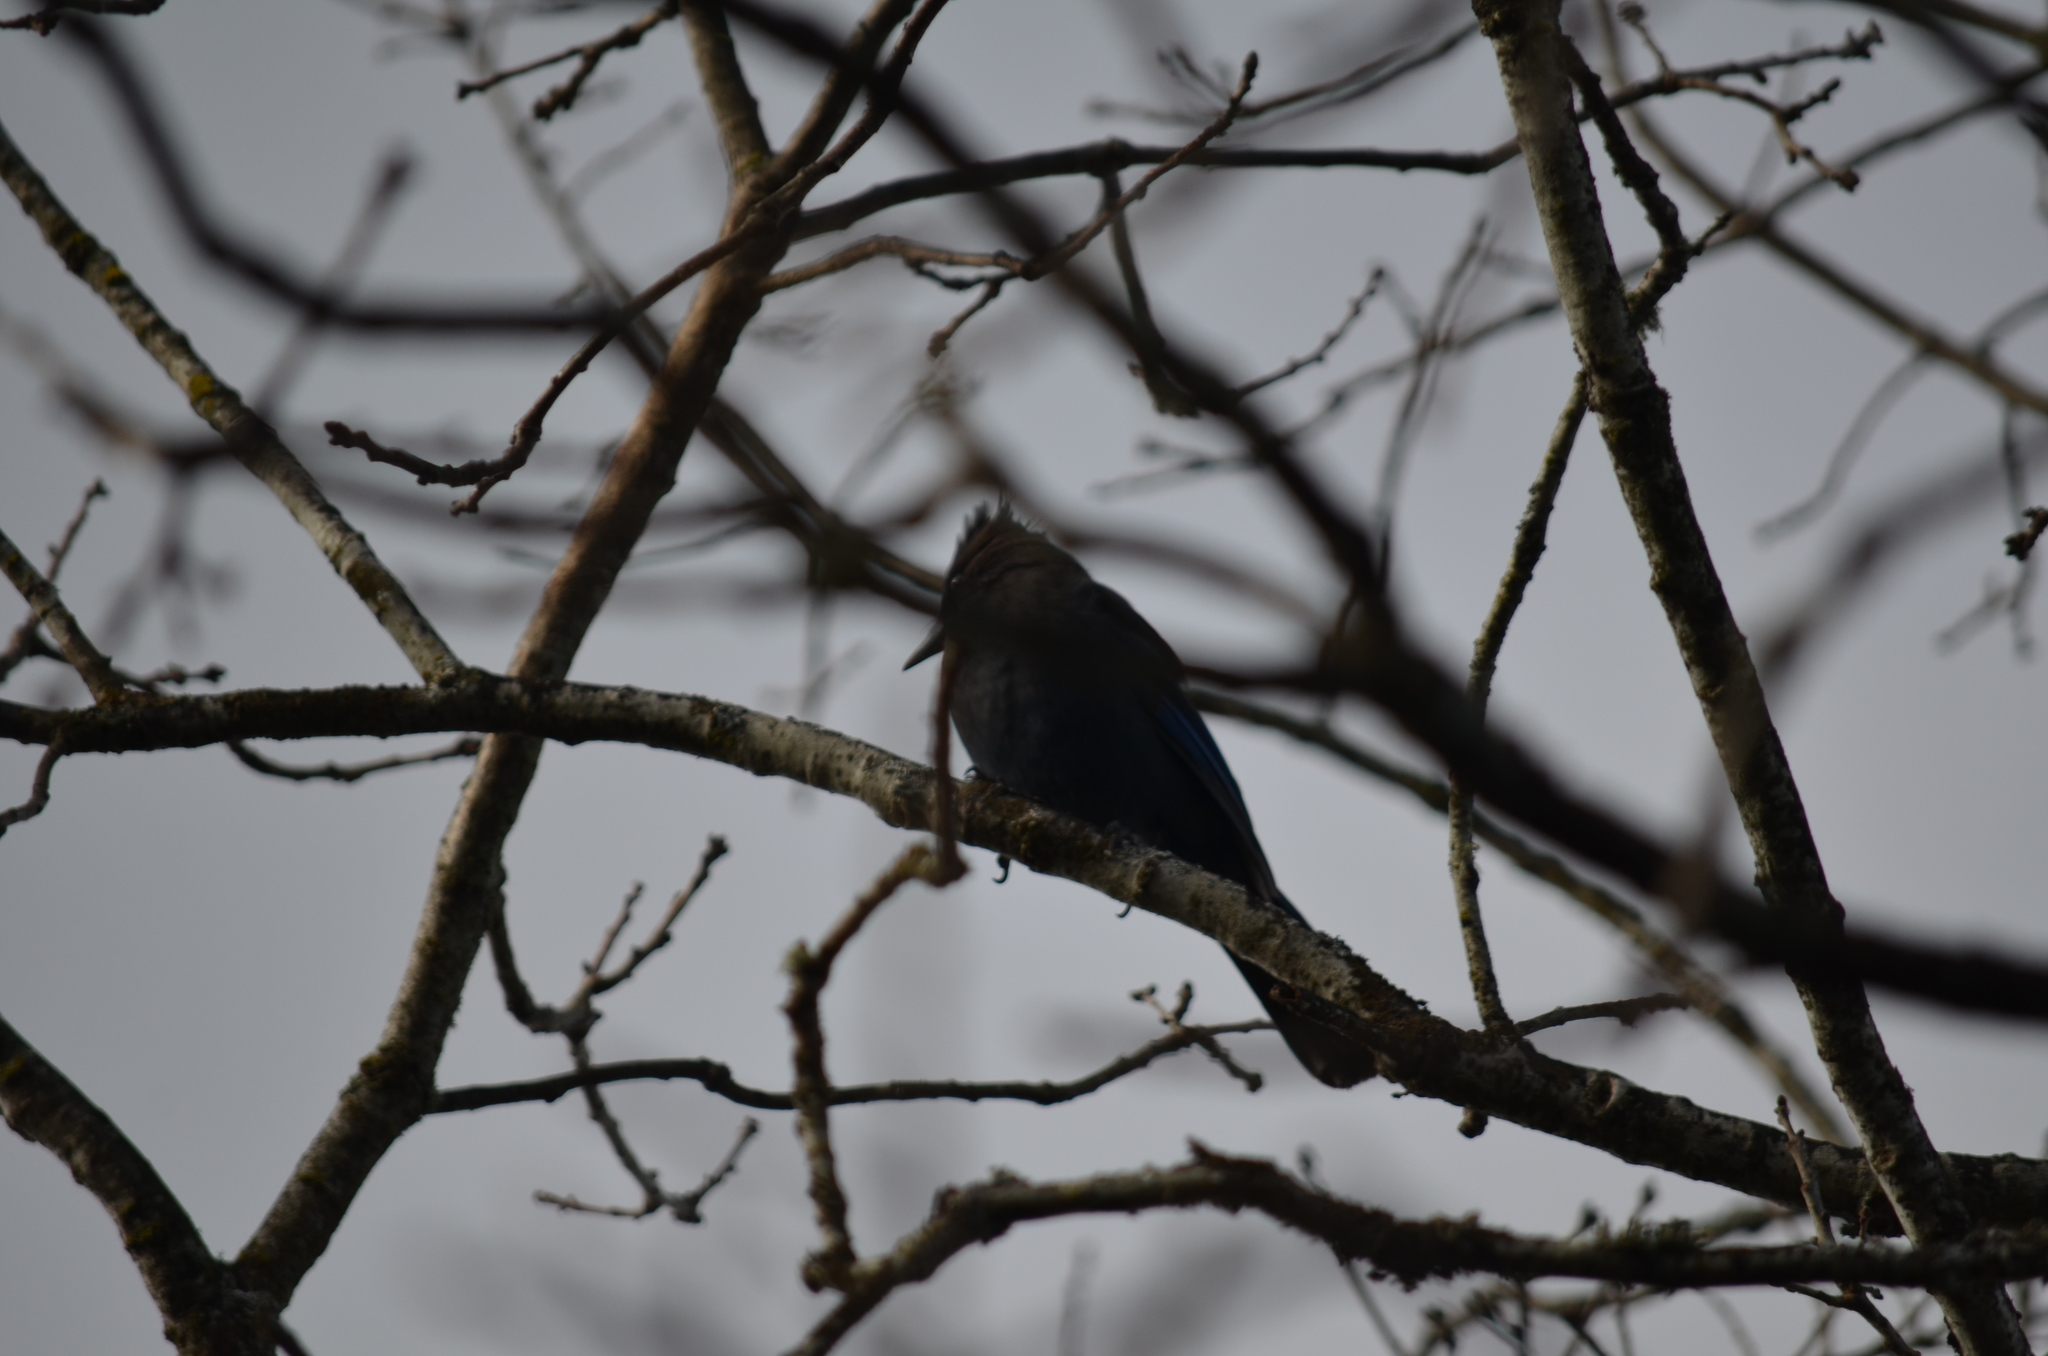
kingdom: Animalia
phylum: Chordata
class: Aves
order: Passeriformes
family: Corvidae
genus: Cyanocitta
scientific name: Cyanocitta stelleri
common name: Steller's jay
